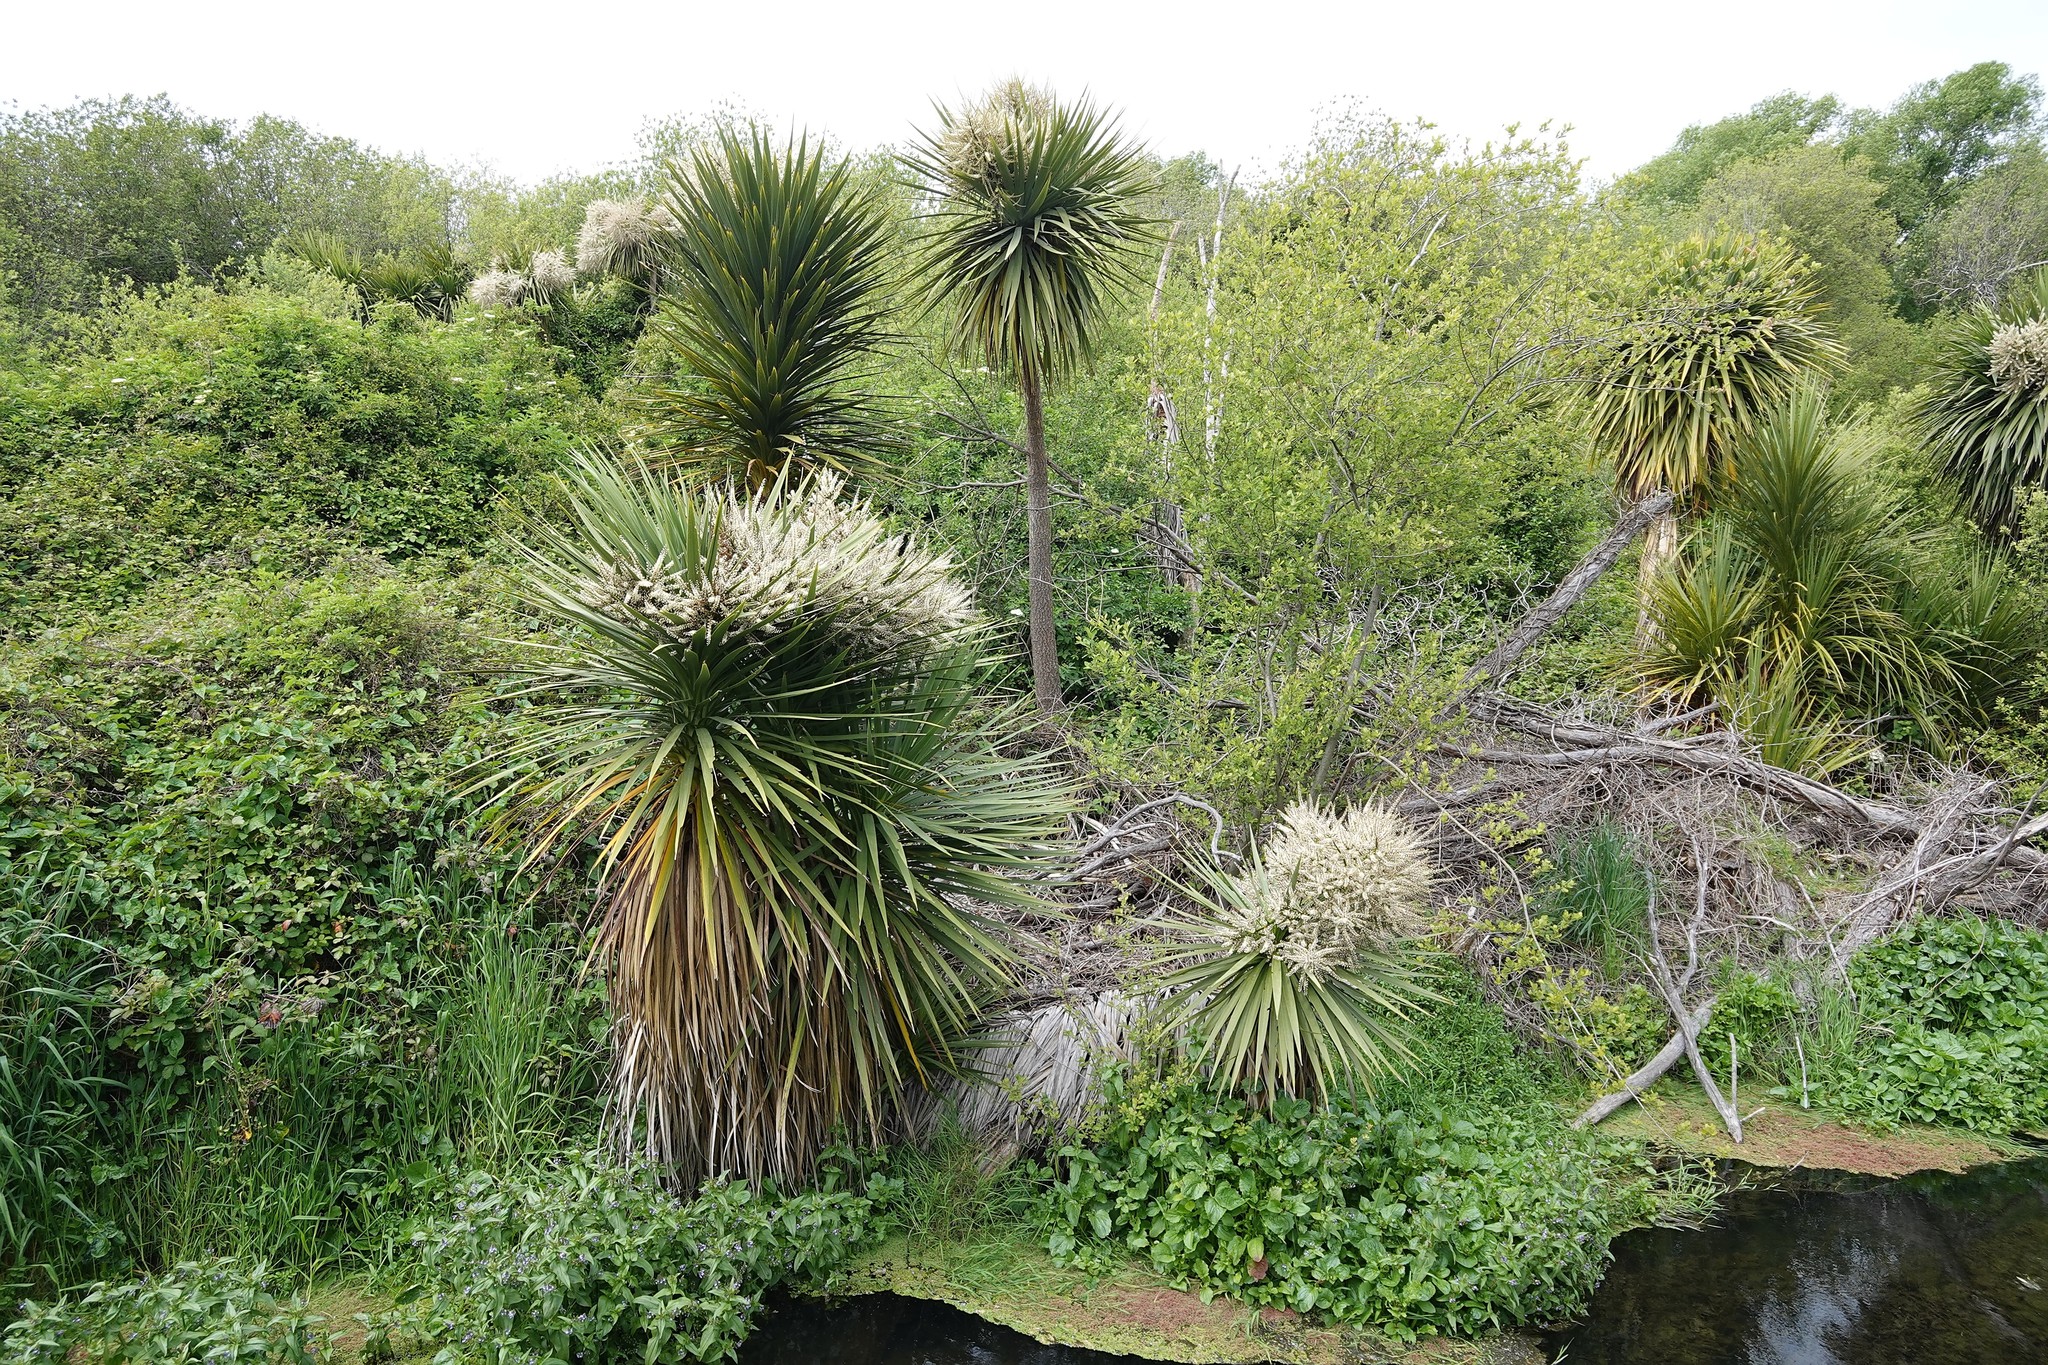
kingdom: Plantae
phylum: Tracheophyta
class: Liliopsida
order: Asparagales
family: Asparagaceae
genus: Cordyline
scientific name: Cordyline australis
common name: Cabbage-palm
